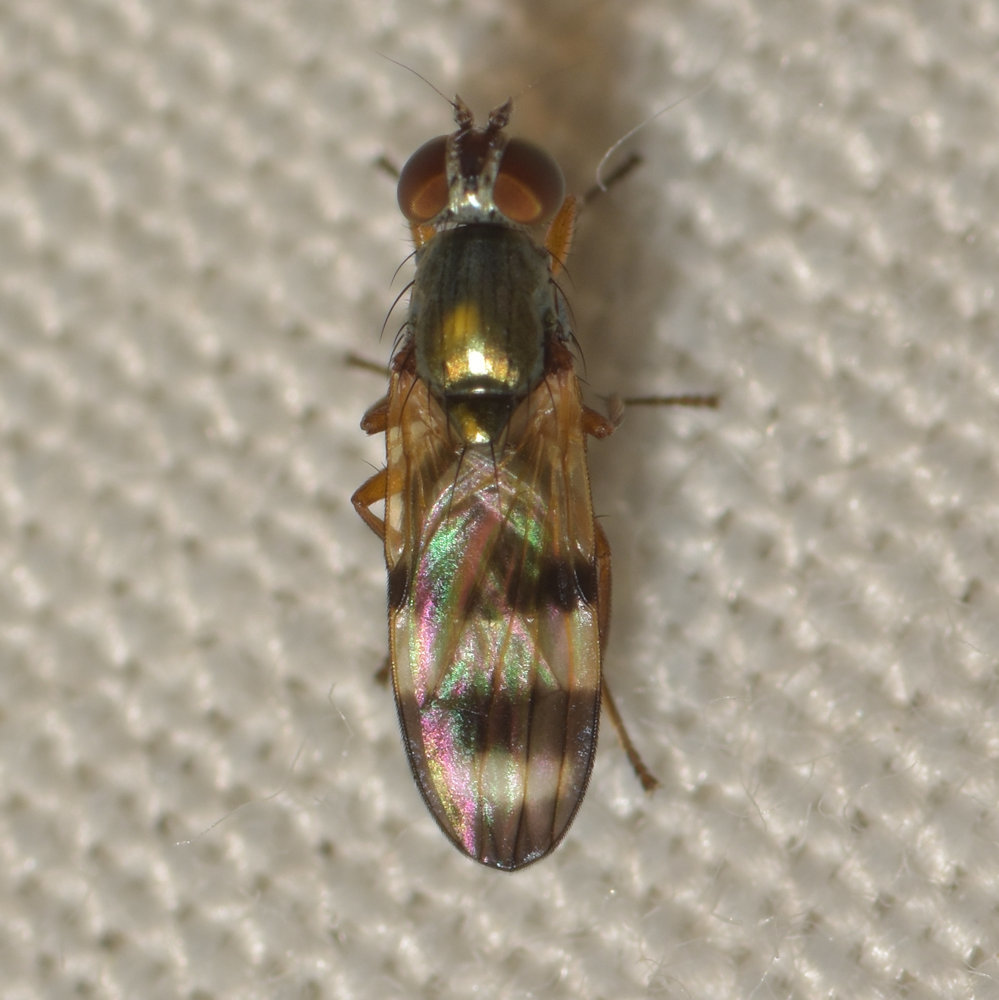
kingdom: Animalia
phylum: Arthropoda
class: Insecta
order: Diptera
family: Ulidiidae
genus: Chaetopsis
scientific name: Chaetopsis fulvifrons
